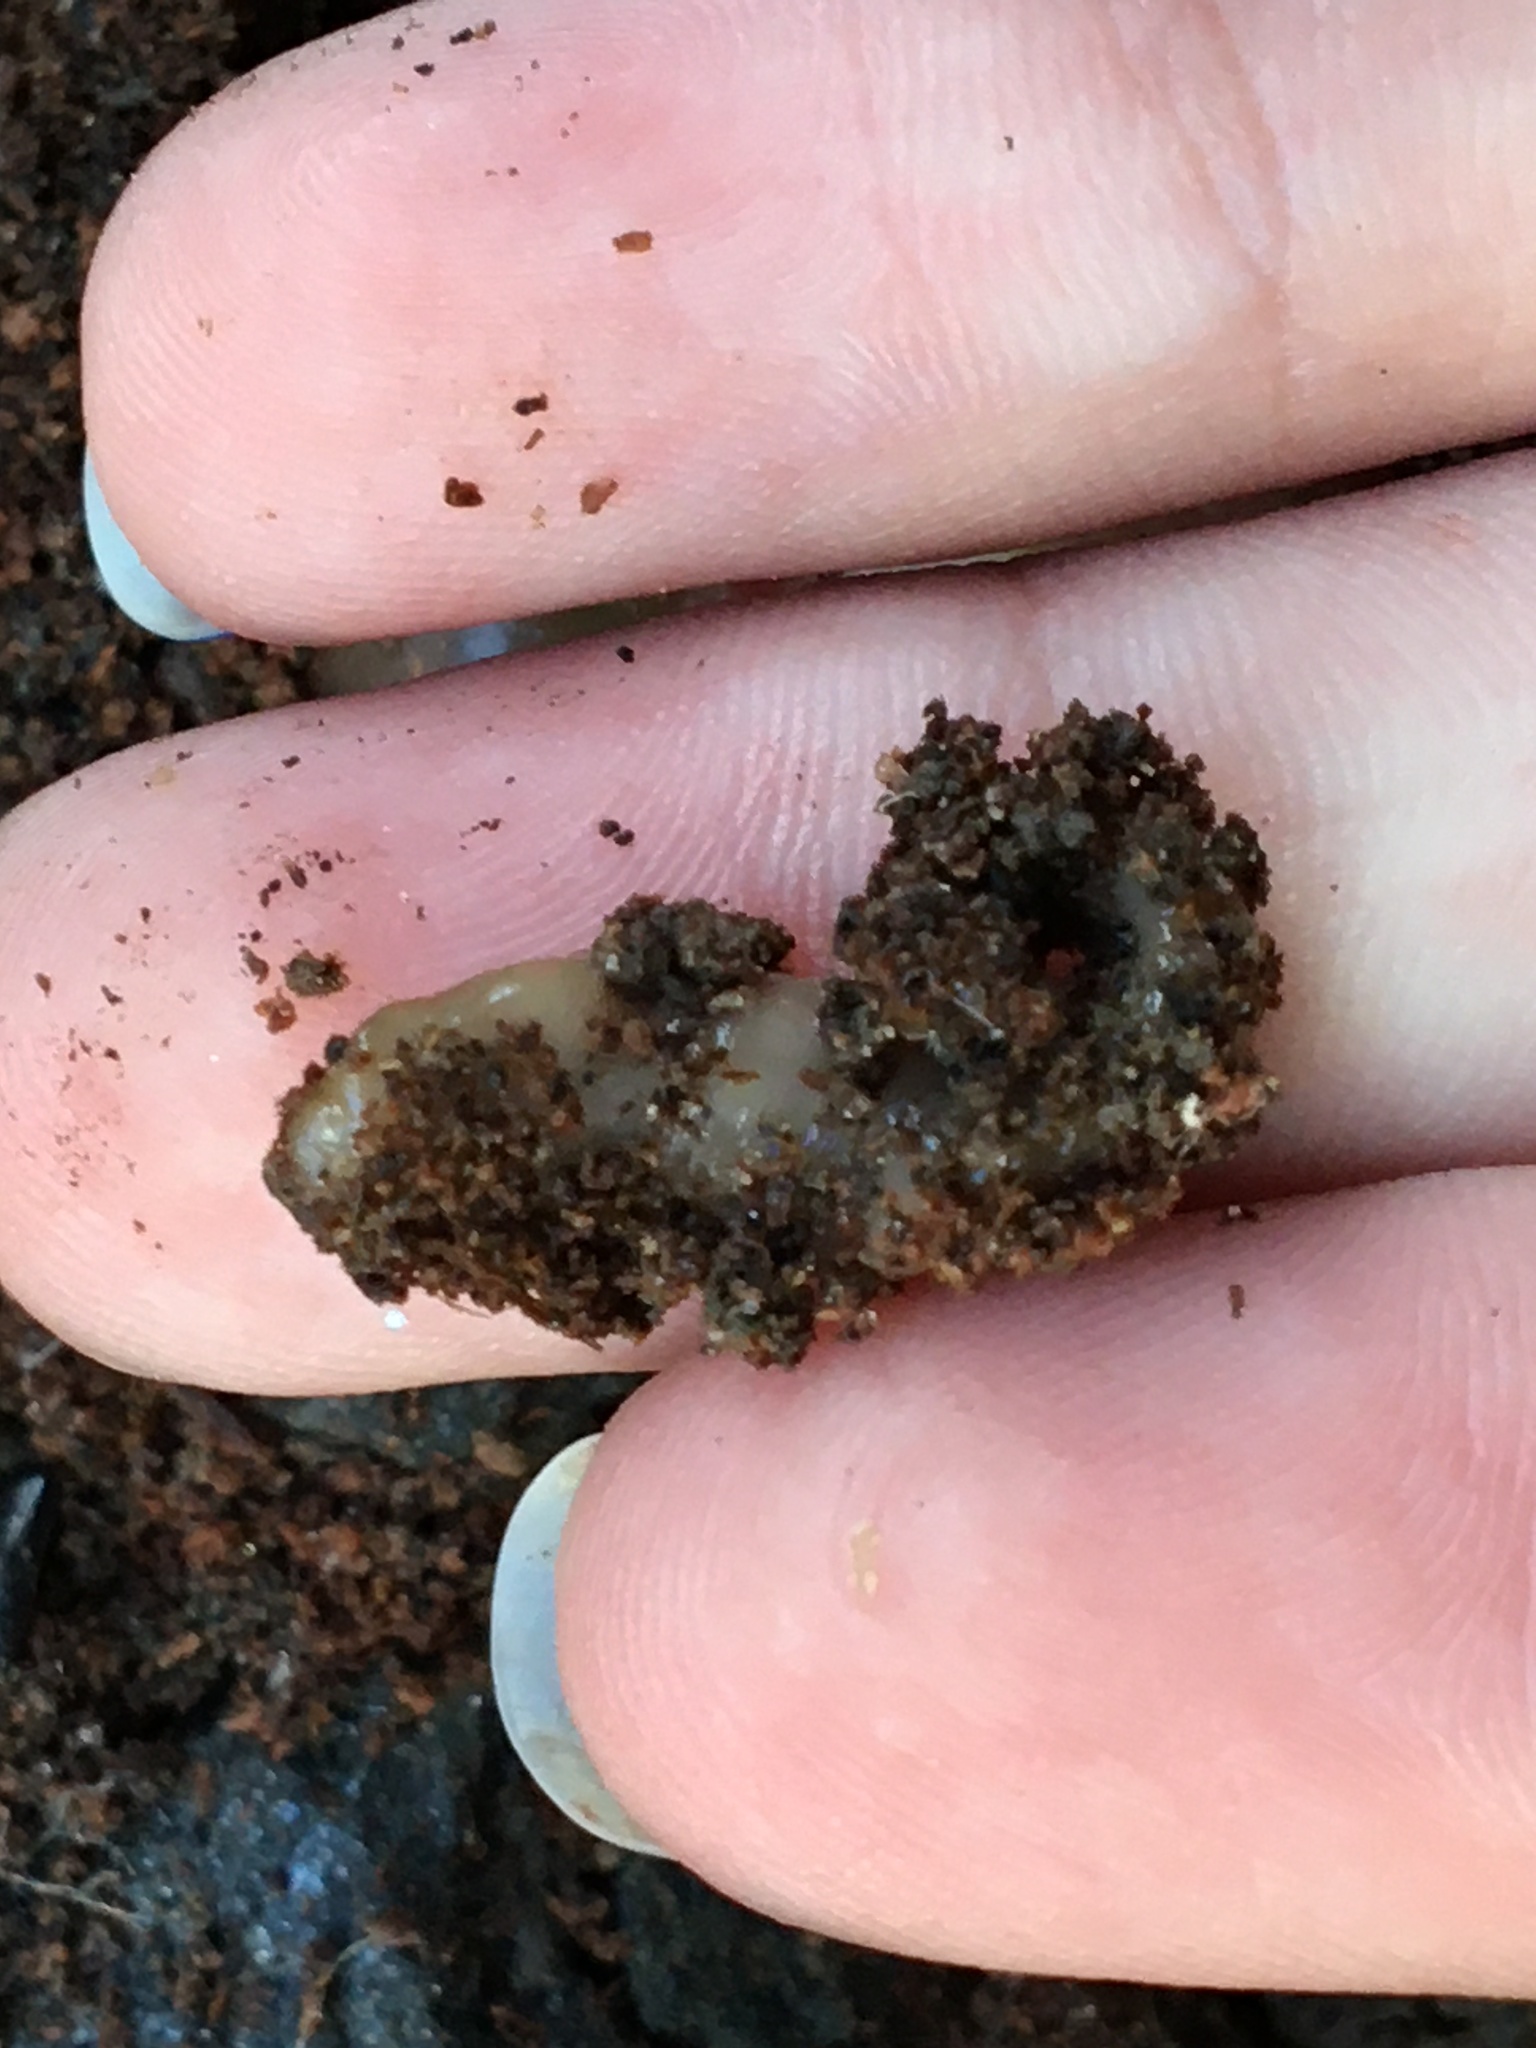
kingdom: Animalia
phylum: Platyhelminthes
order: Tricladida
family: Geoplanidae
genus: Bipalium
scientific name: Bipalium adventitium
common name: Land planarian
